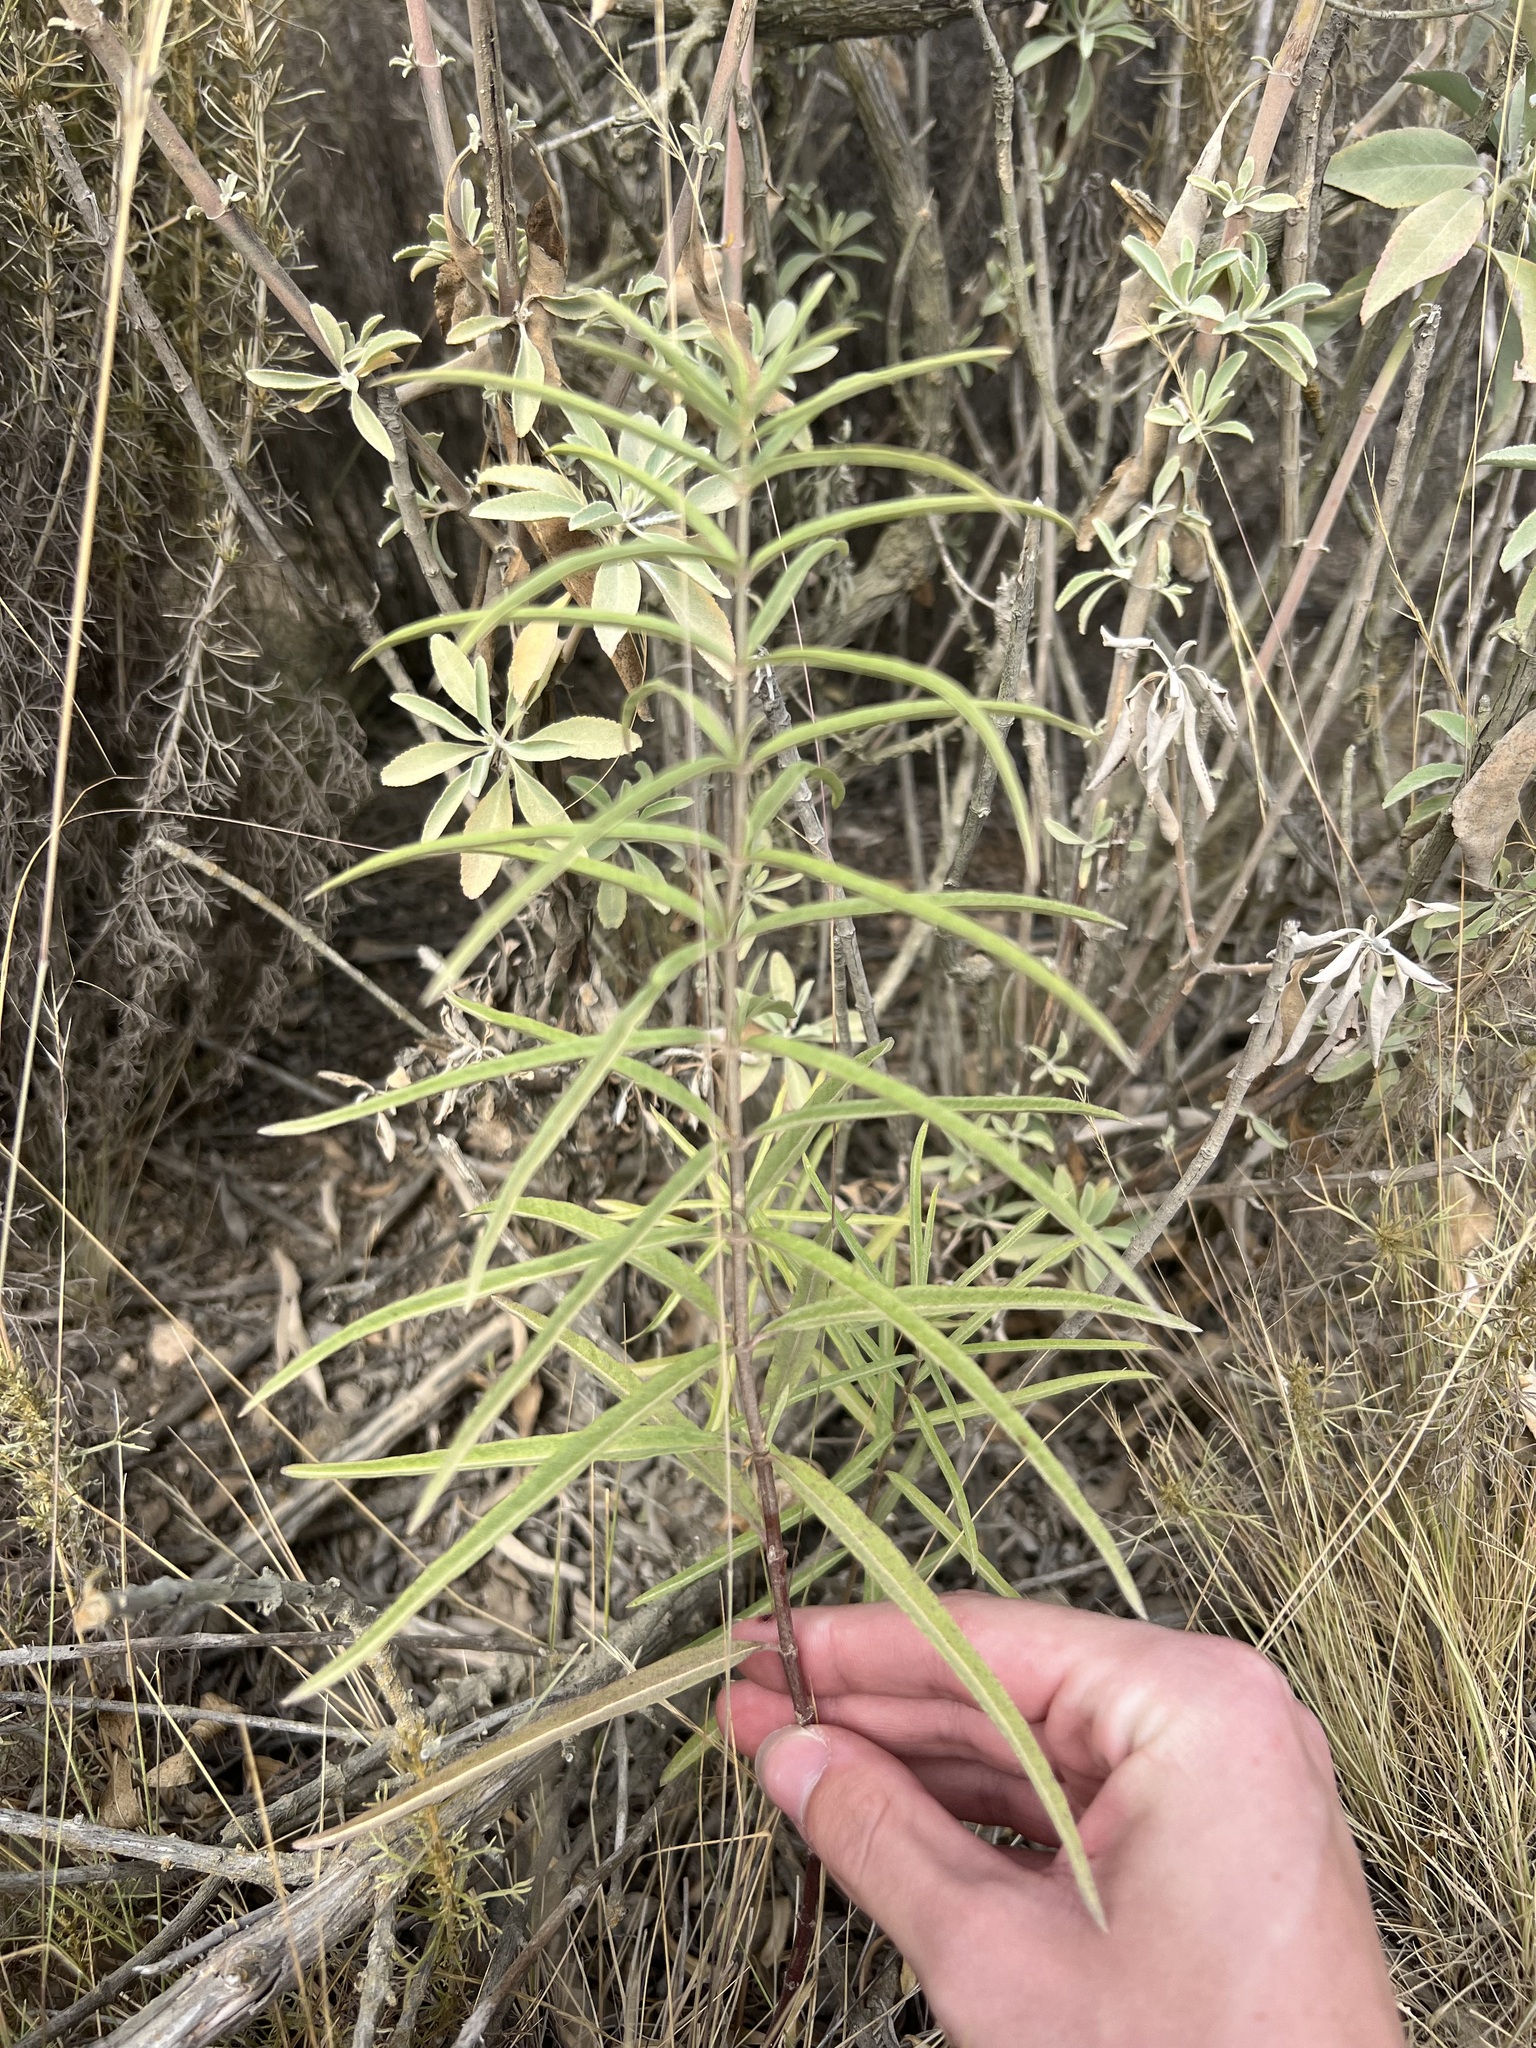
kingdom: Plantae
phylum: Tracheophyta
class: Magnoliopsida
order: Gentianales
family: Apocynaceae
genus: Asclepias
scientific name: Asclepias fascicularis
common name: Mexican milkweed
